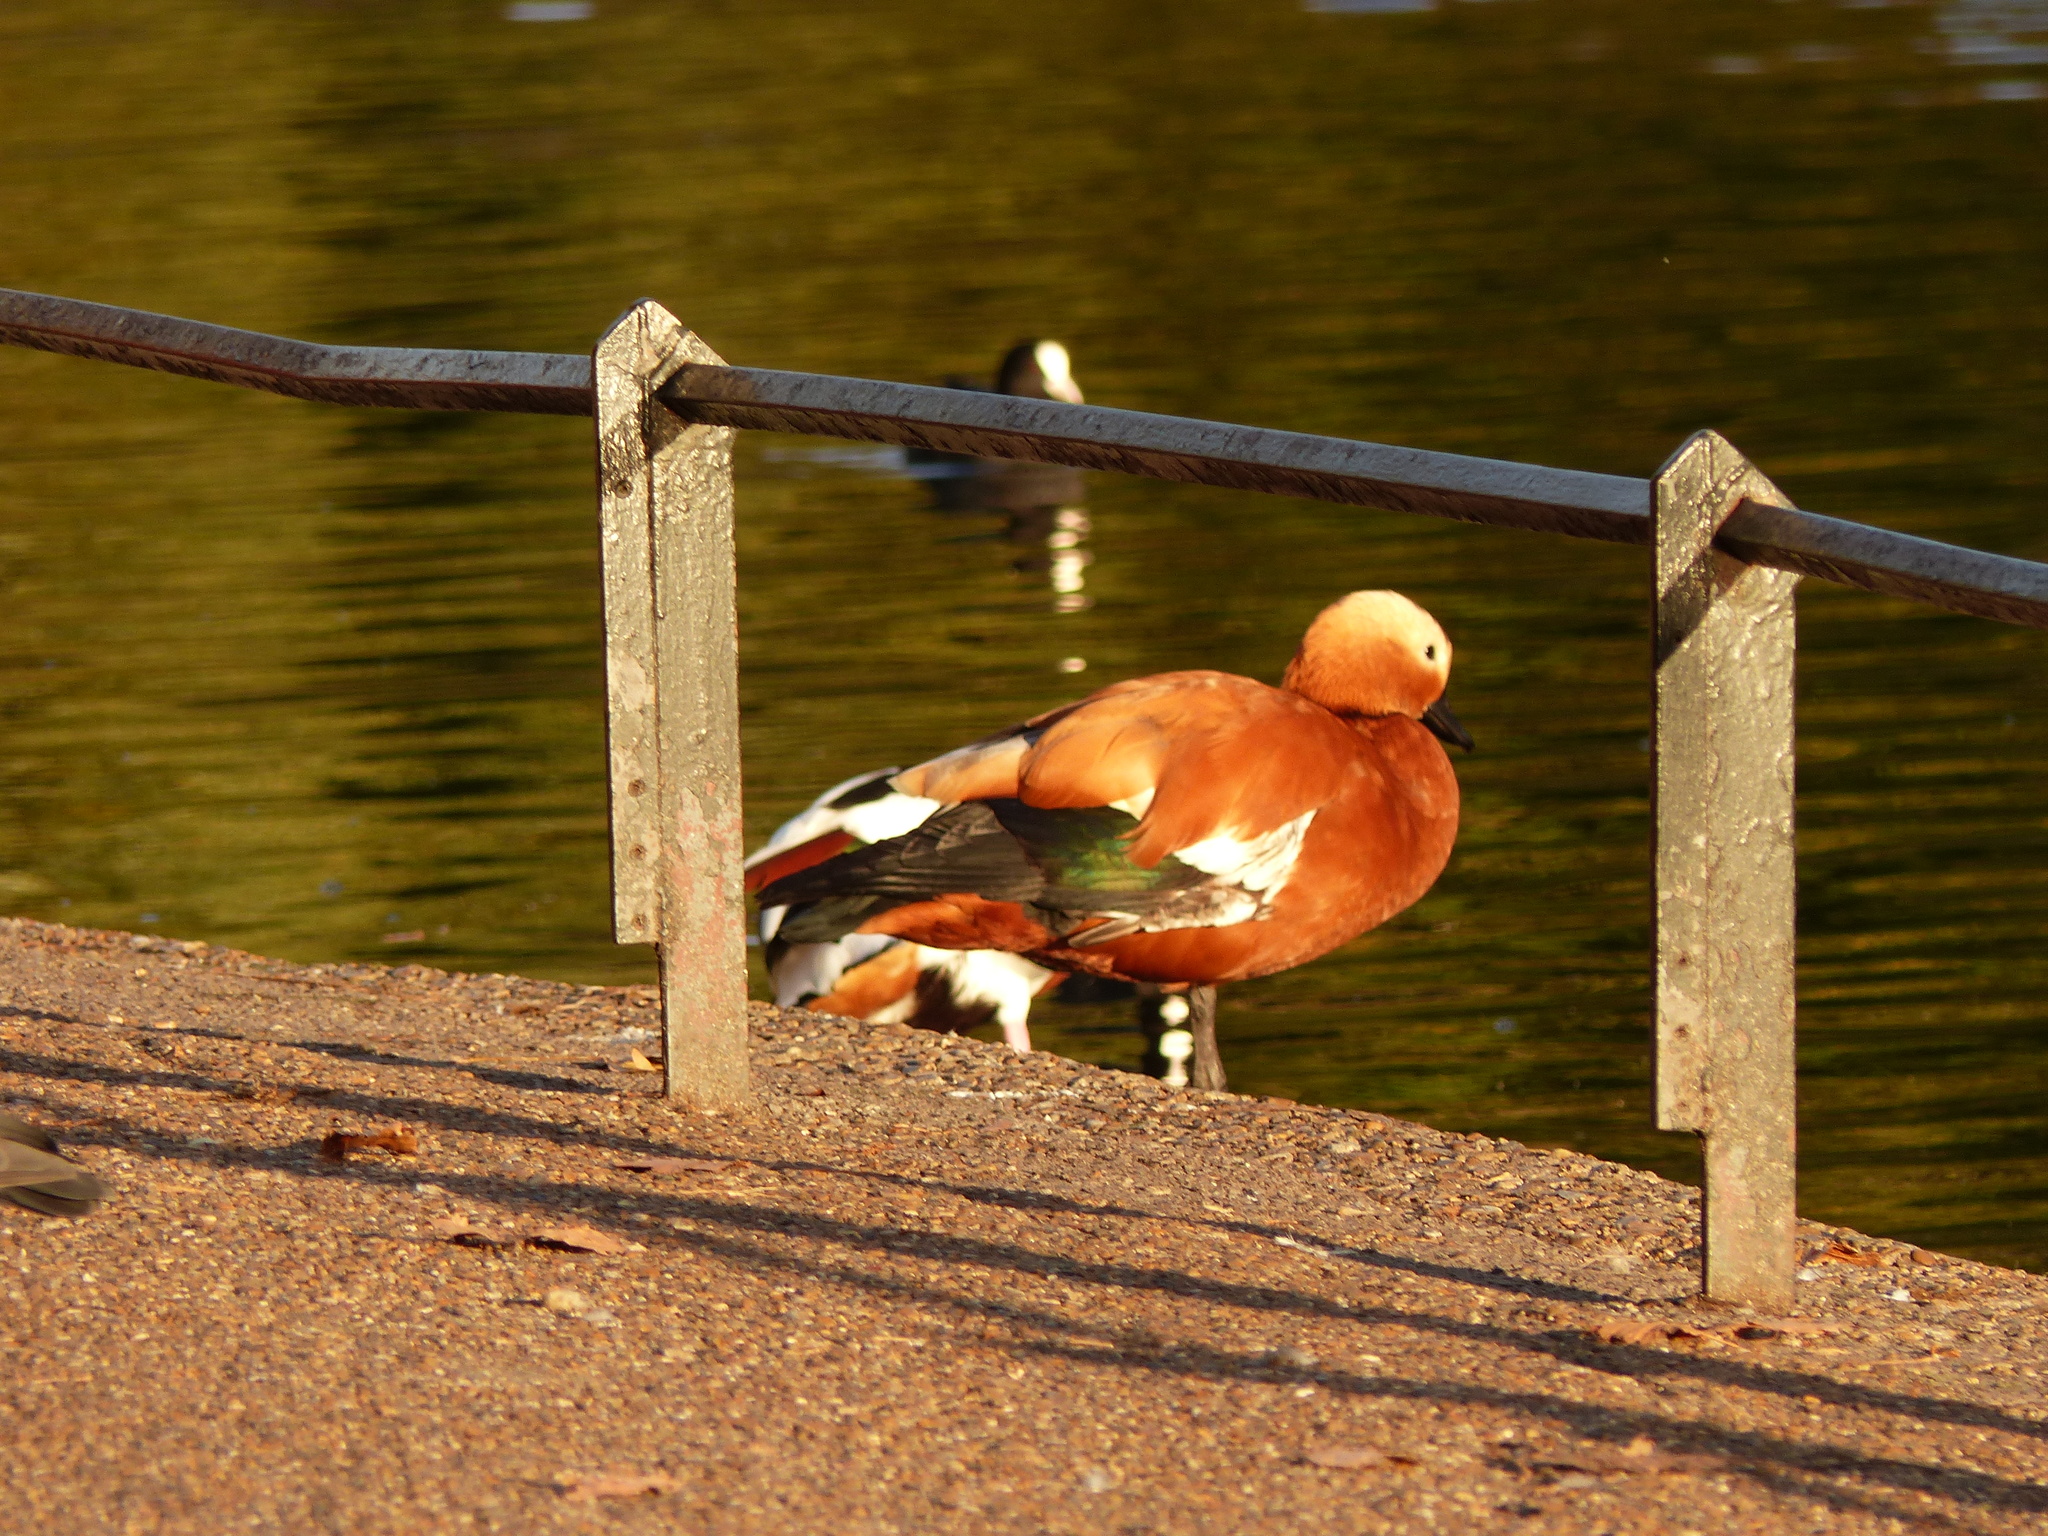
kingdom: Animalia
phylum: Chordata
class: Aves
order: Anseriformes
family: Anatidae
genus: Tadorna
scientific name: Tadorna ferruginea
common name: Ruddy shelduck
